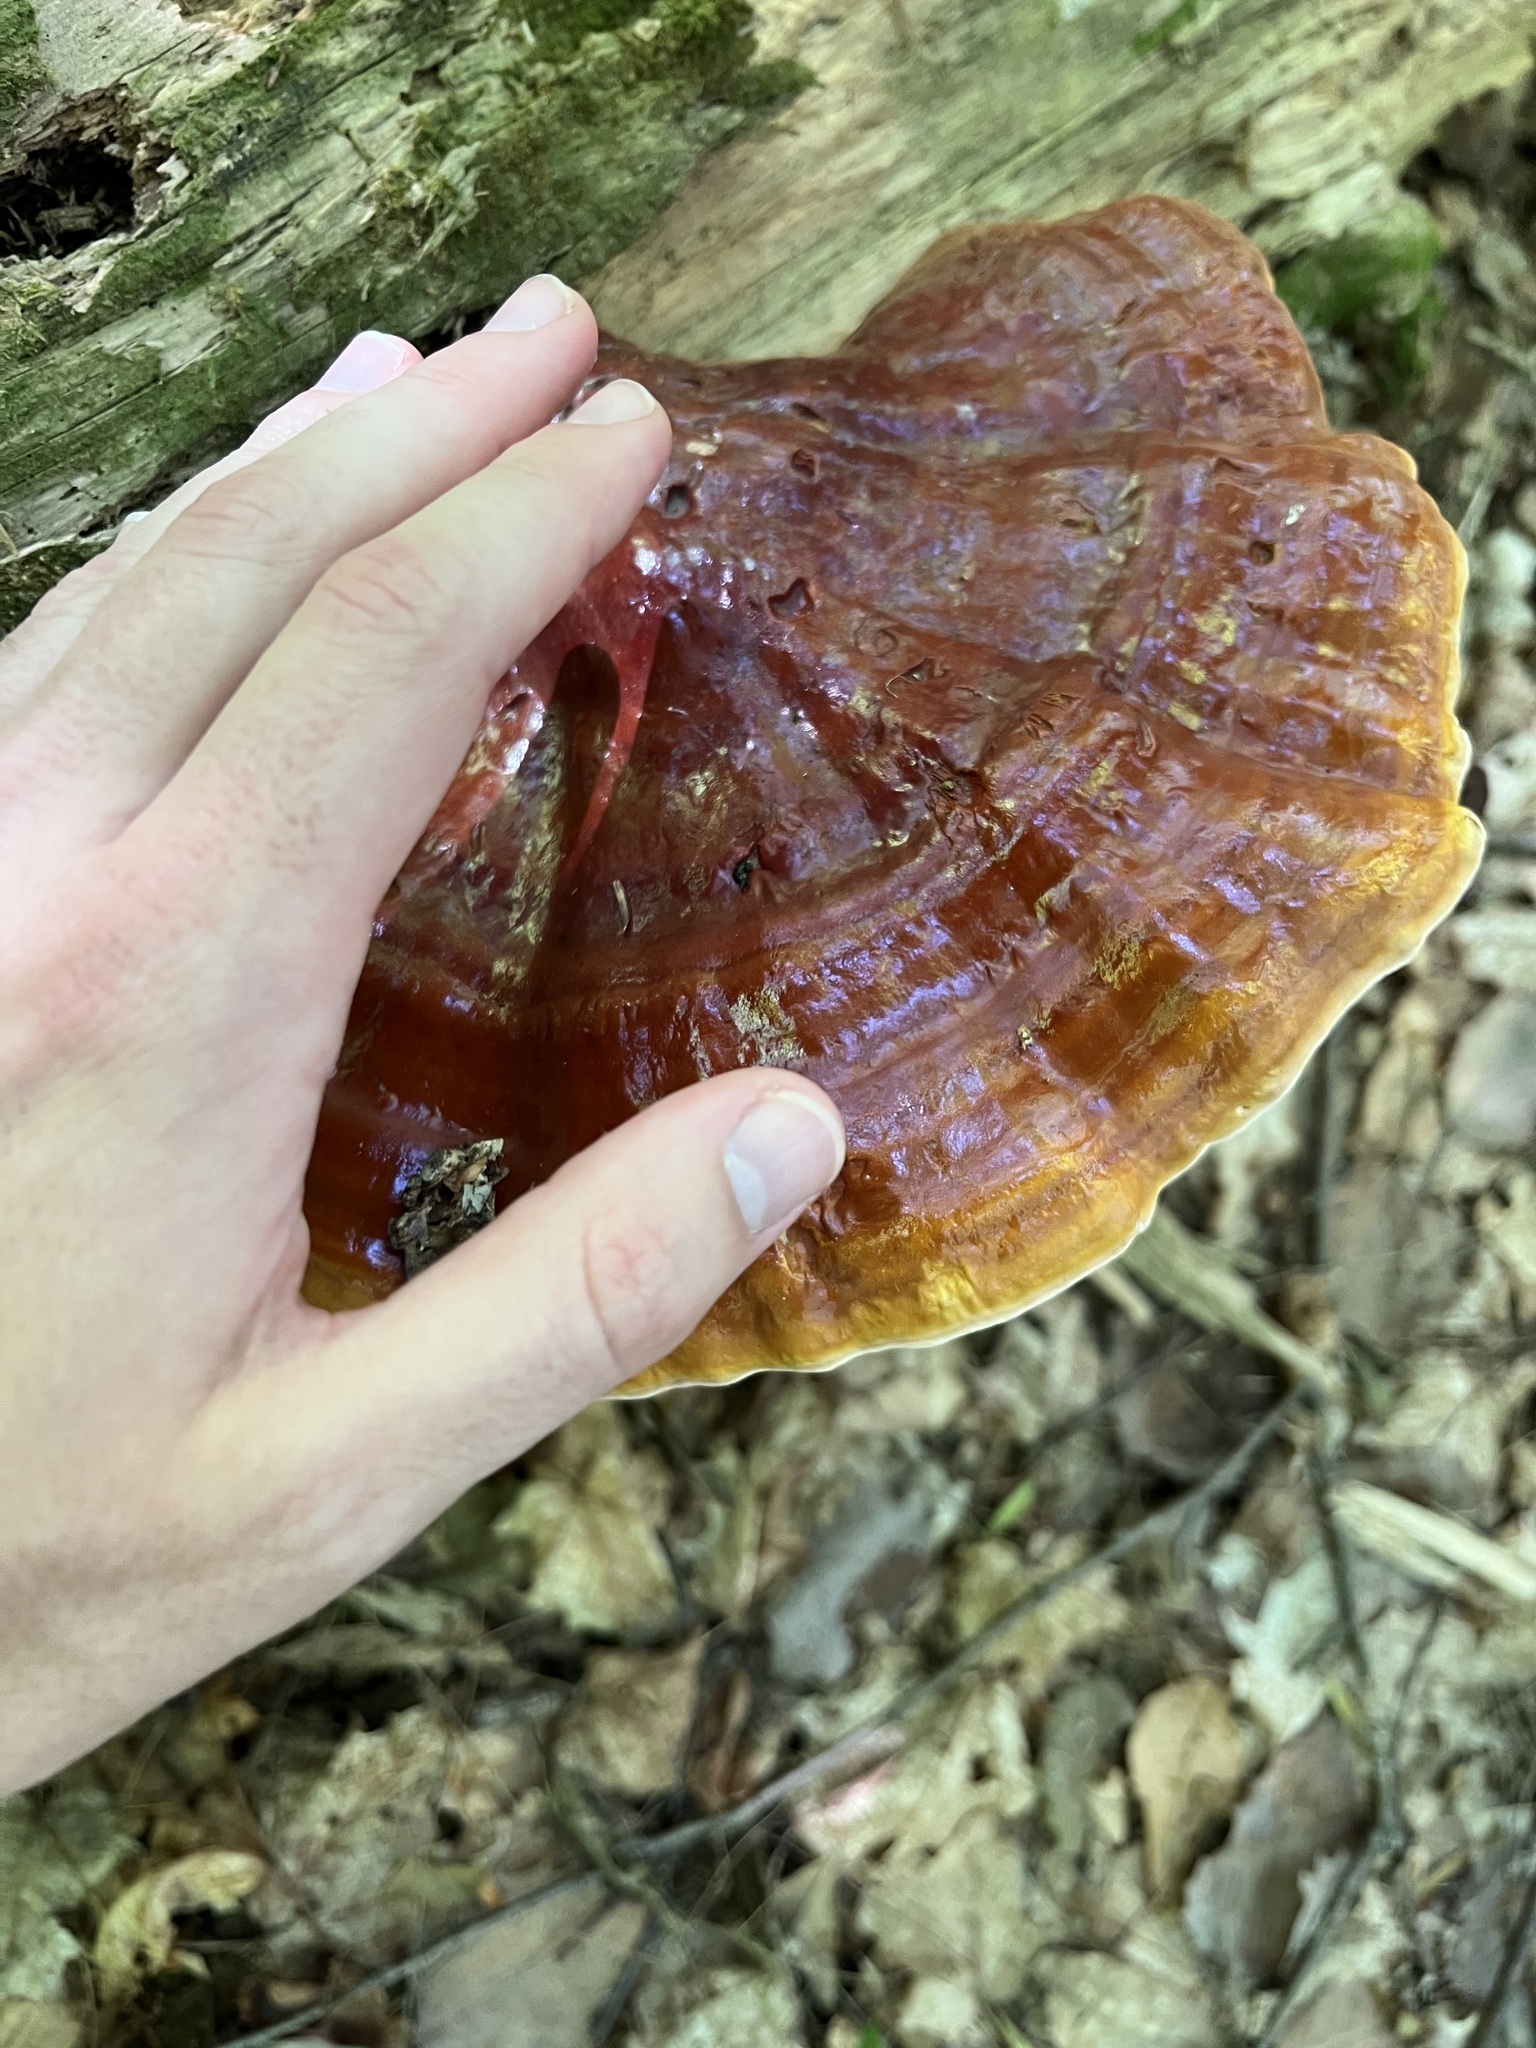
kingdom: Fungi
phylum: Basidiomycota
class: Agaricomycetes
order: Polyporales
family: Polyporaceae
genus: Ganoderma
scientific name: Ganoderma tsugae
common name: Hemlock varnish shelf
